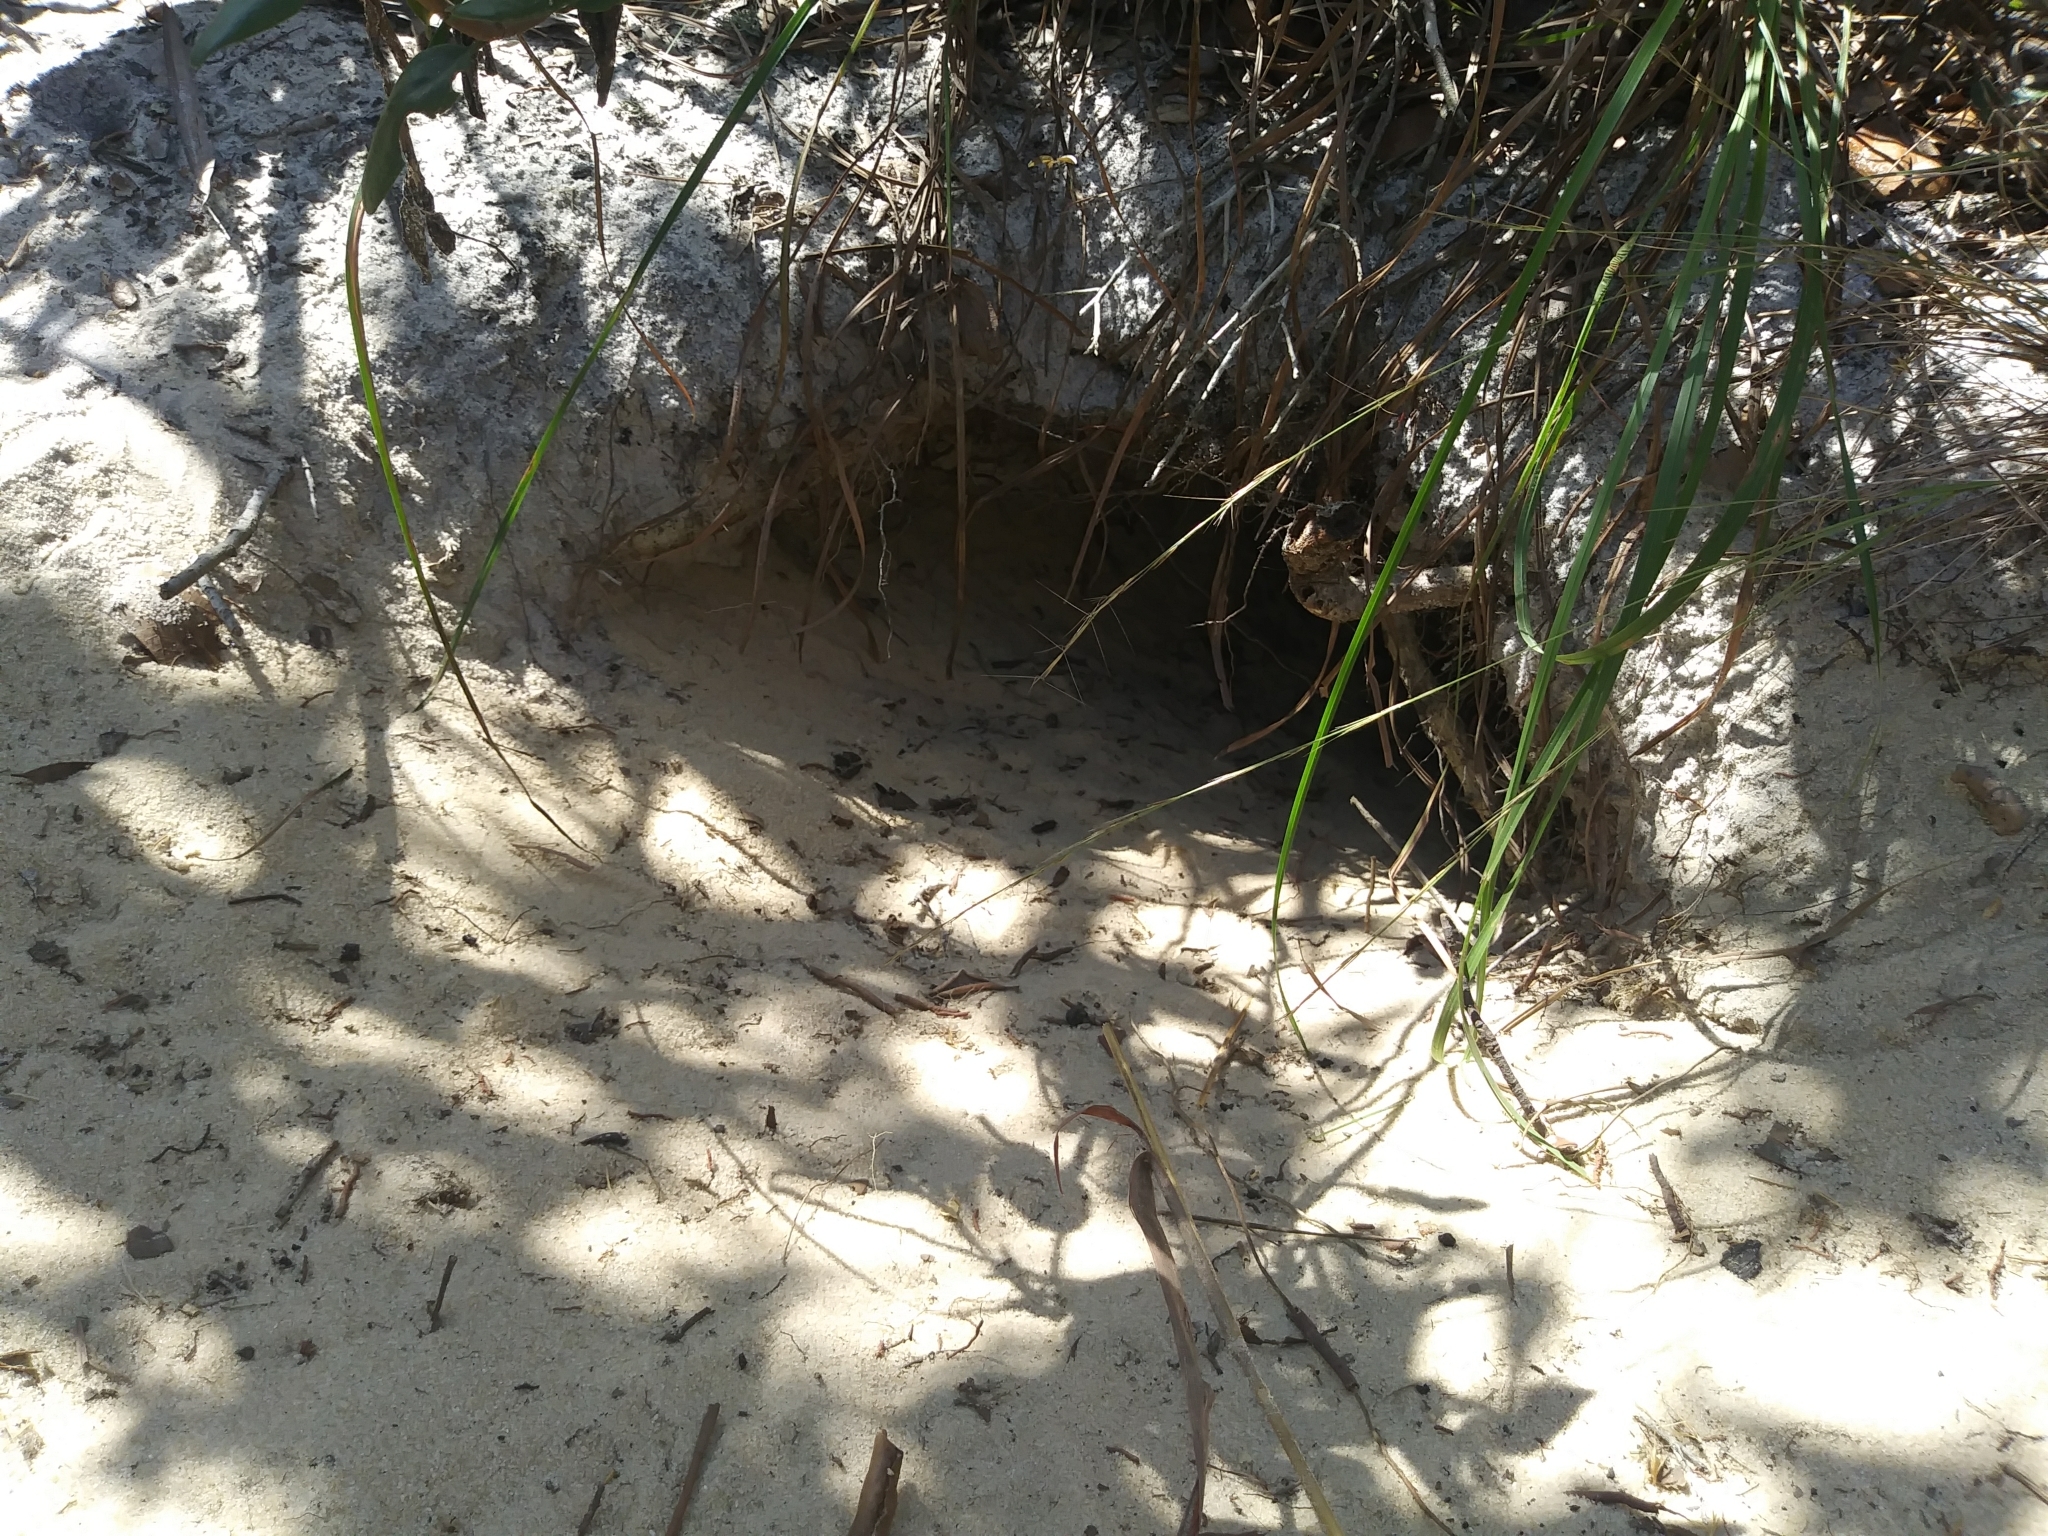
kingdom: Animalia
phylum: Chordata
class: Testudines
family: Testudinidae
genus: Gopherus
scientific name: Gopherus polyphemus
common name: Florida gopher tortoise
